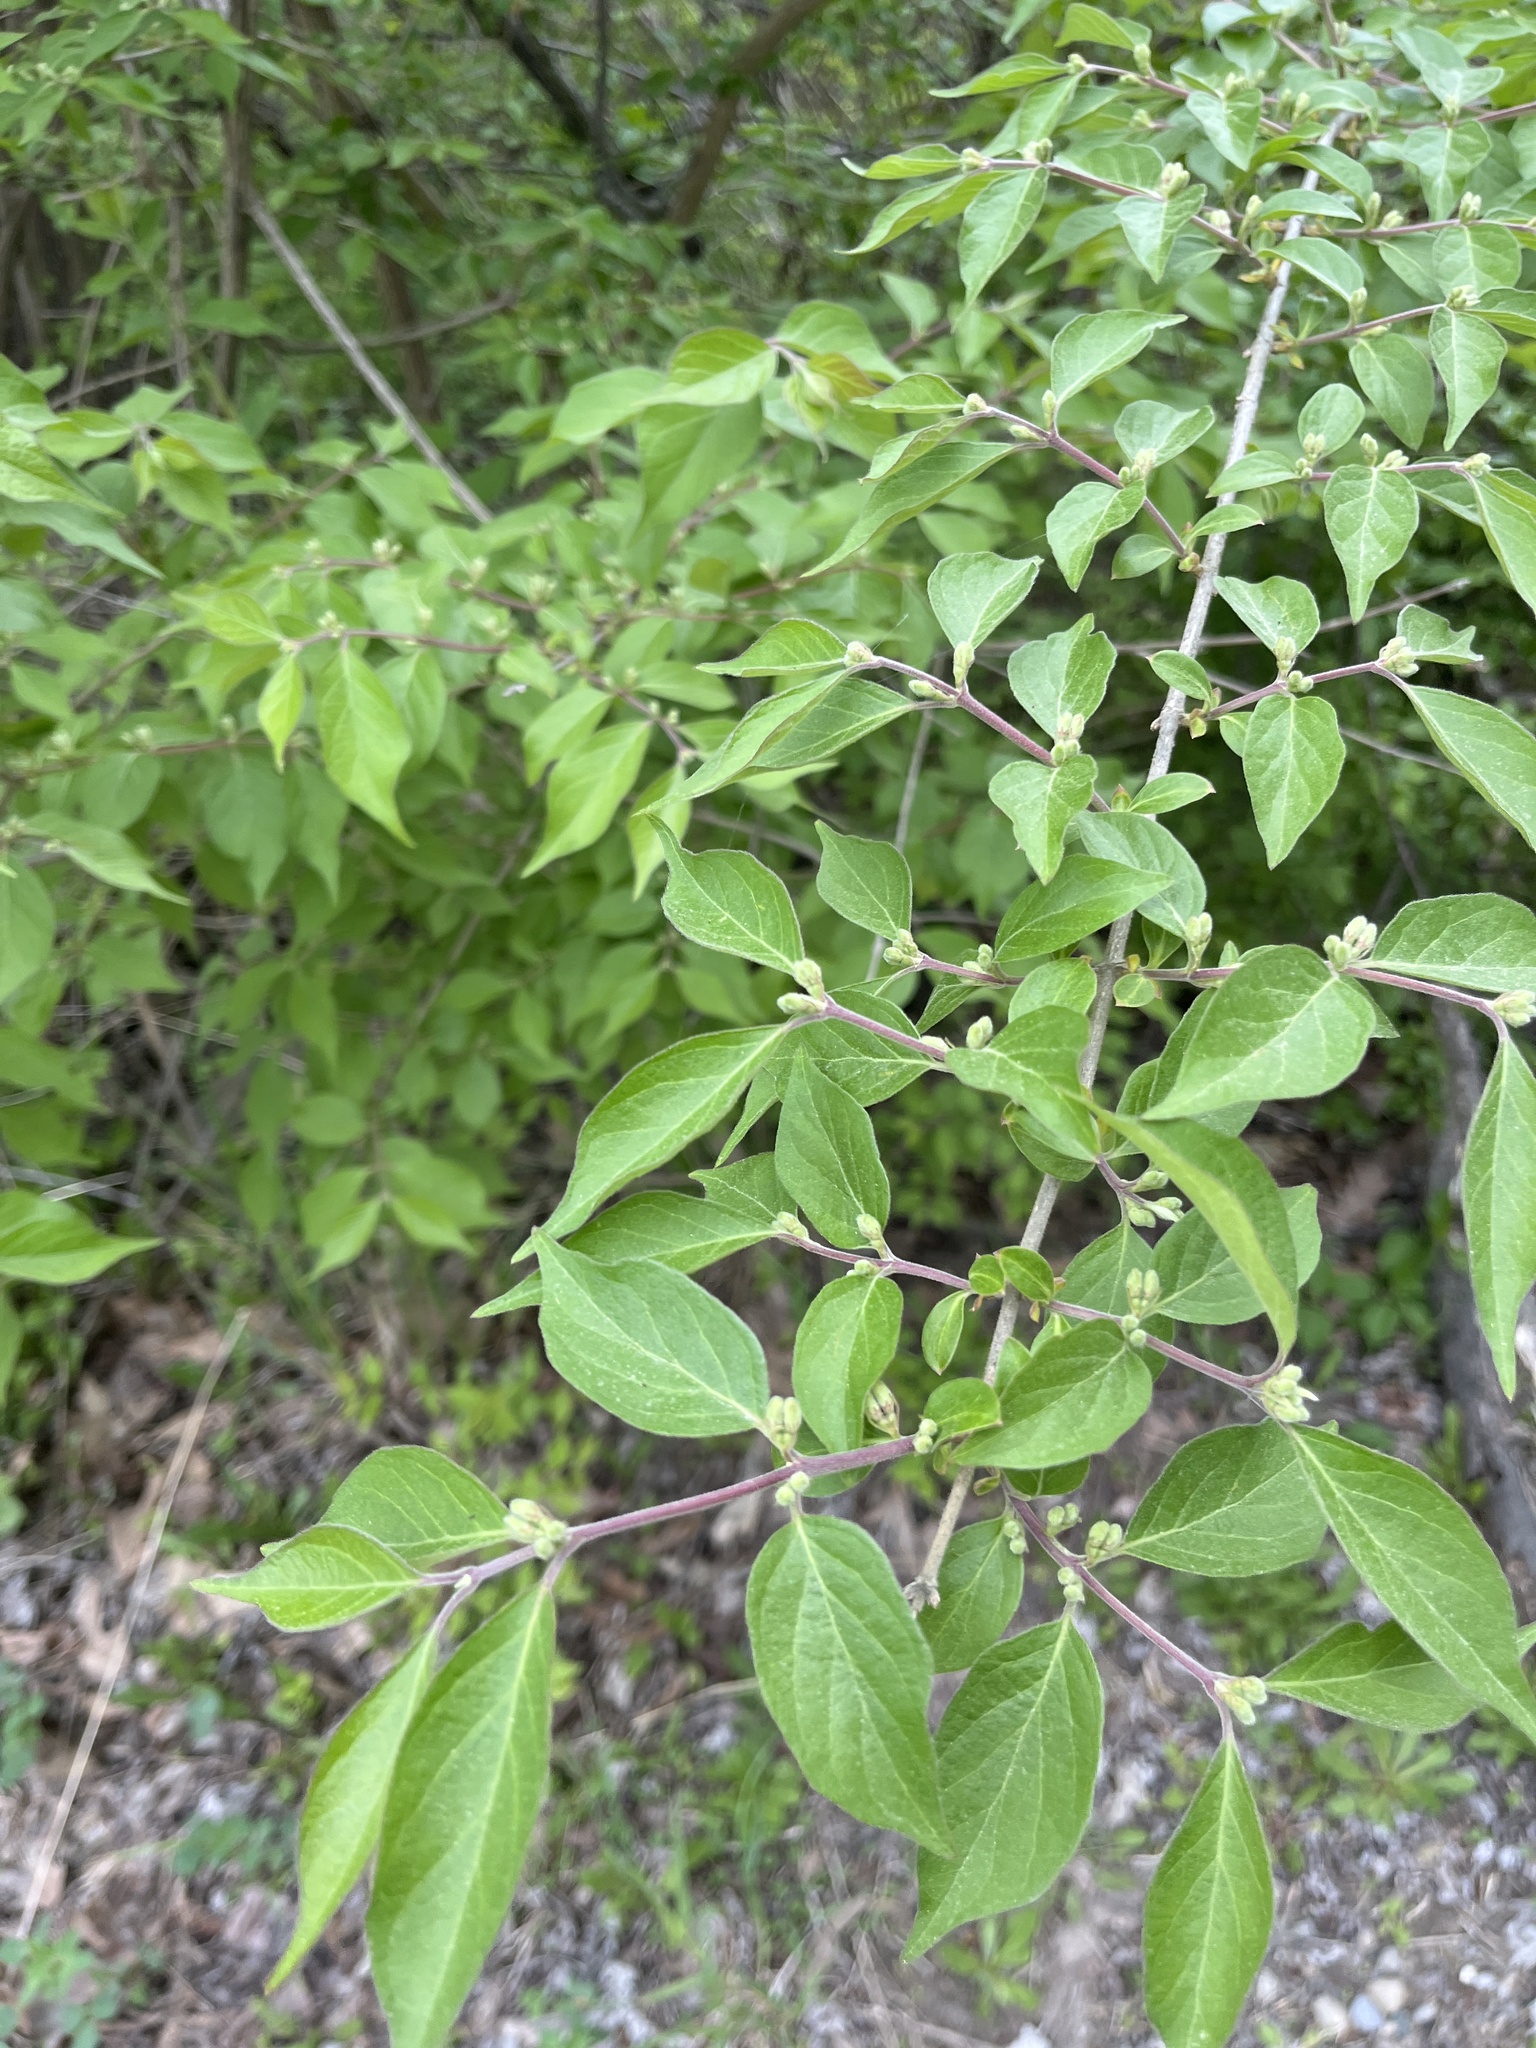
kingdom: Plantae
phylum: Tracheophyta
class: Magnoliopsida
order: Dipsacales
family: Caprifoliaceae
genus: Lonicera
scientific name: Lonicera maackii
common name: Amur honeysuckle
